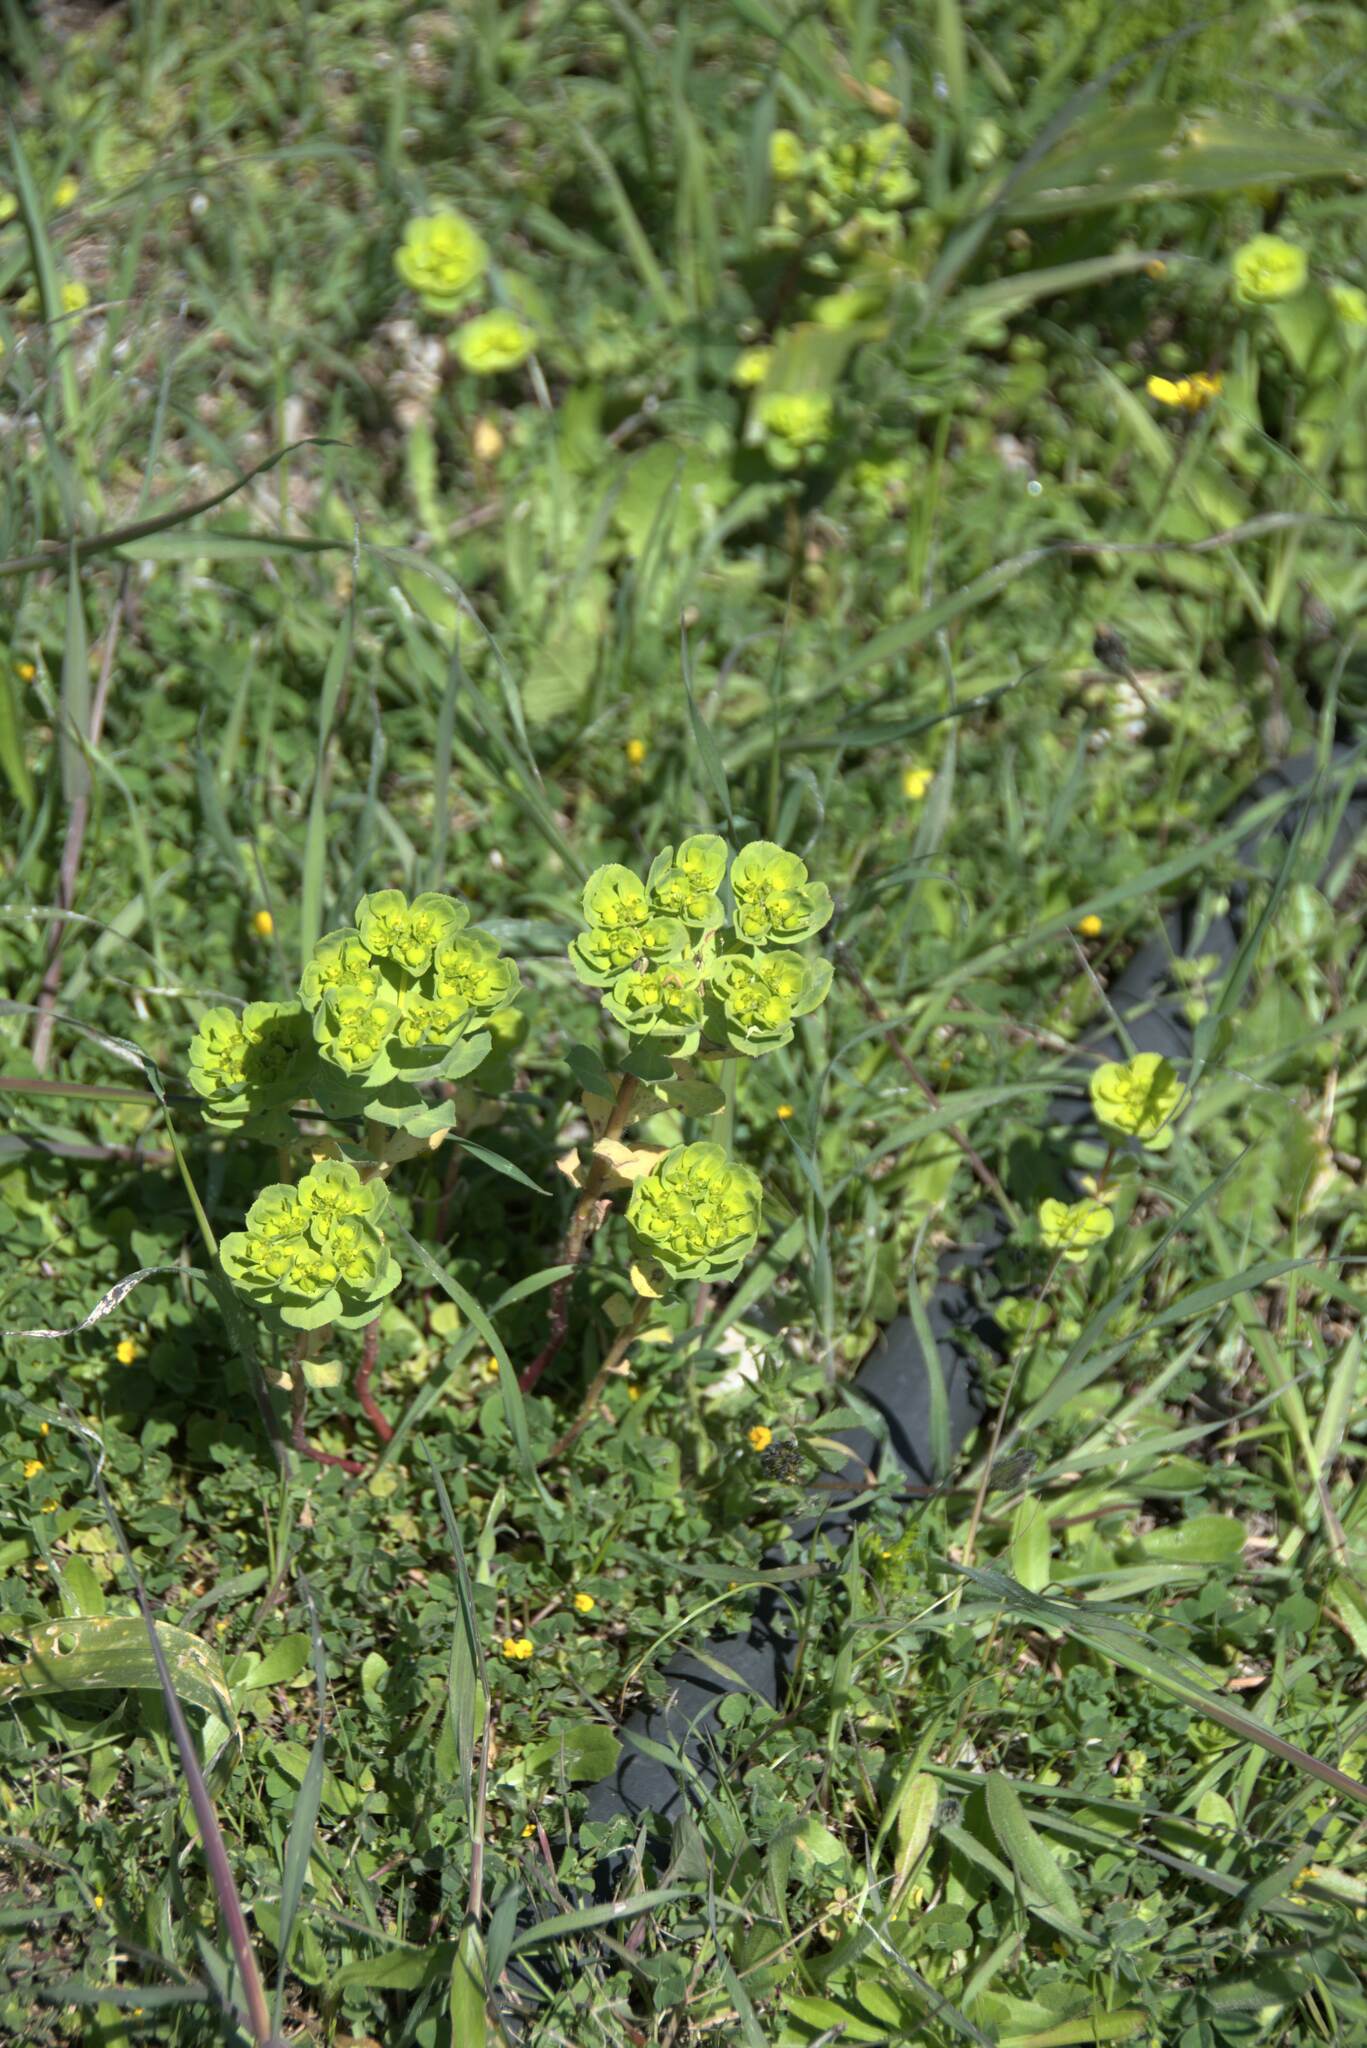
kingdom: Plantae
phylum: Tracheophyta
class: Magnoliopsida
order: Malpighiales
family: Euphorbiaceae
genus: Euphorbia
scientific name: Euphorbia helioscopia
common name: Sun spurge
